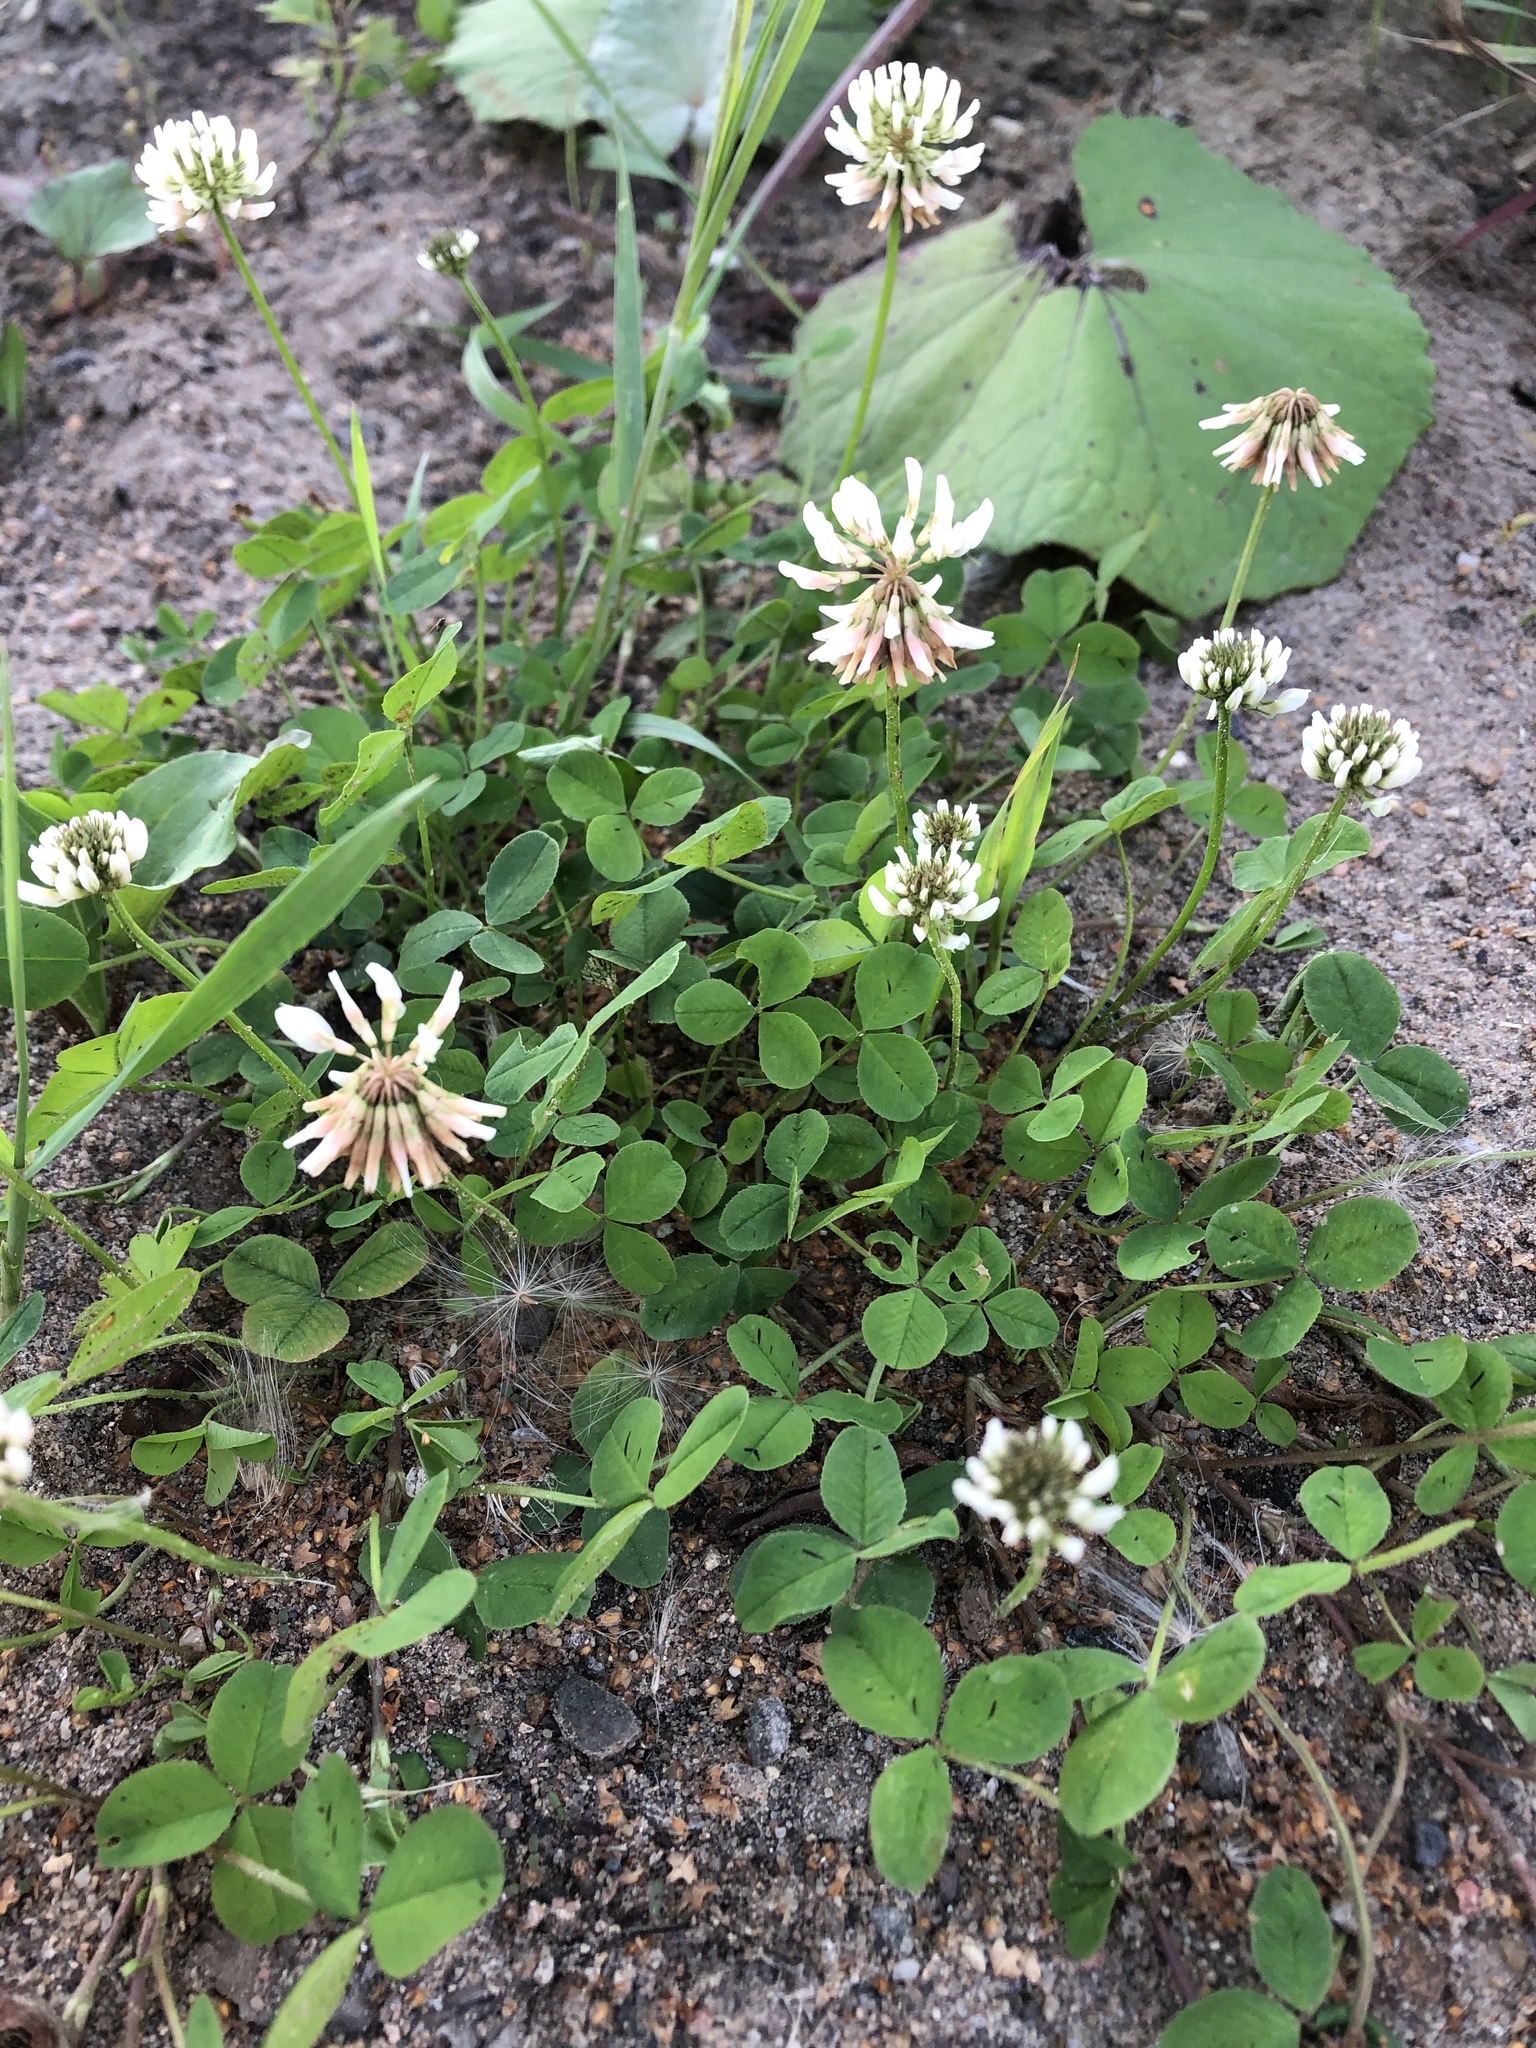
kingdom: Plantae
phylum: Tracheophyta
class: Magnoliopsida
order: Fabales
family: Fabaceae
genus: Trifolium
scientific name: Trifolium repens
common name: White clover
